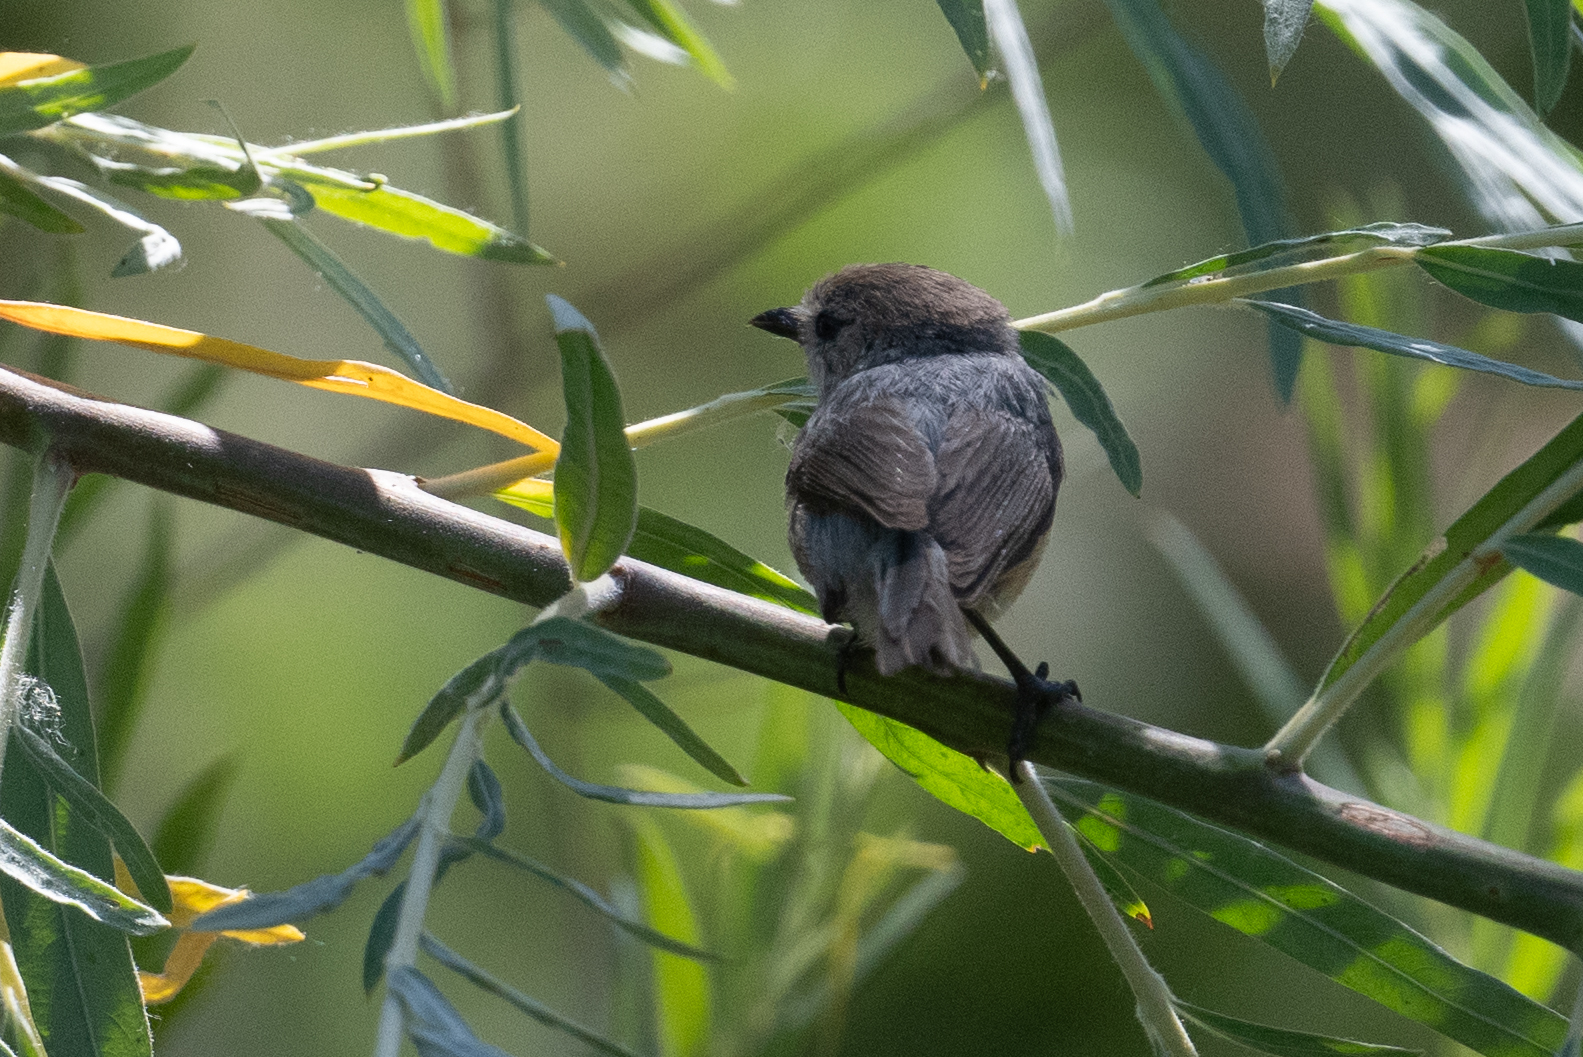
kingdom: Animalia
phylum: Chordata
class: Aves
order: Passeriformes
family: Aegithalidae
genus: Psaltriparus
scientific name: Psaltriparus minimus
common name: American bushtit
